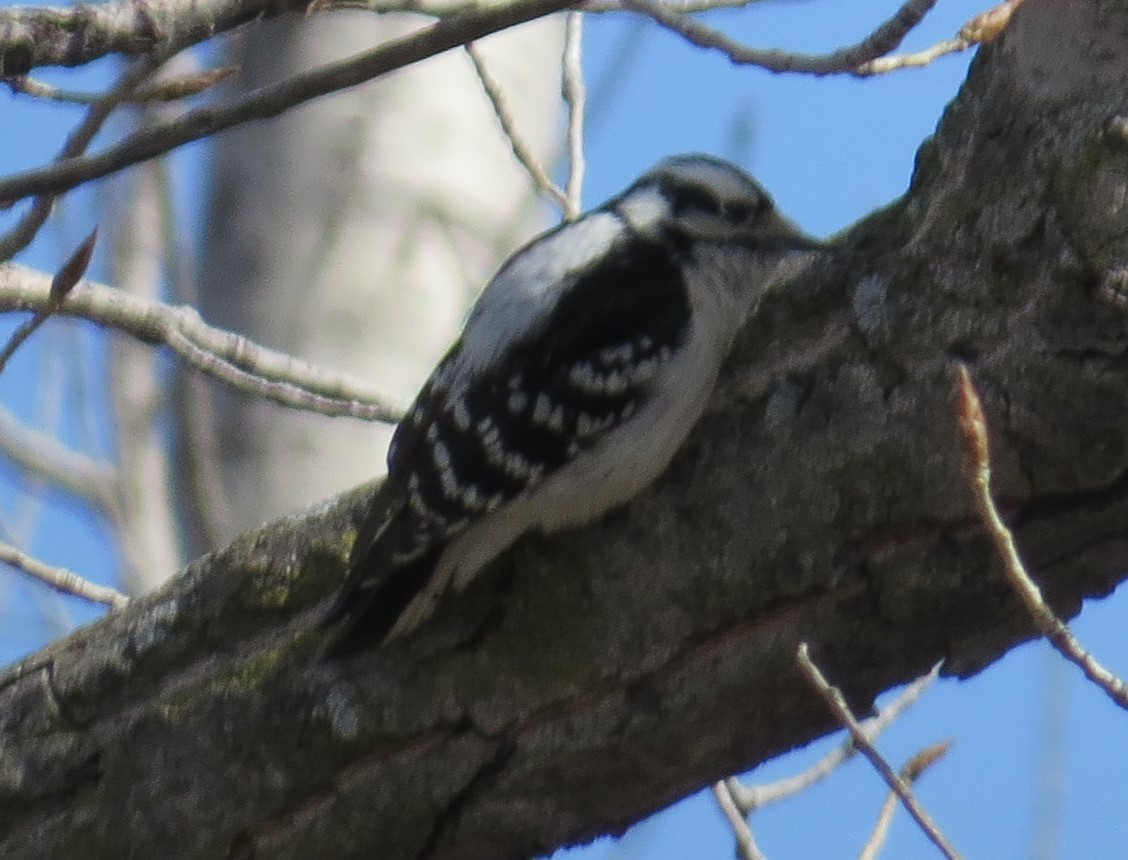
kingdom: Animalia
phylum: Chordata
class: Aves
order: Piciformes
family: Picidae
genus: Dryobates
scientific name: Dryobates pubescens
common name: Downy woodpecker
